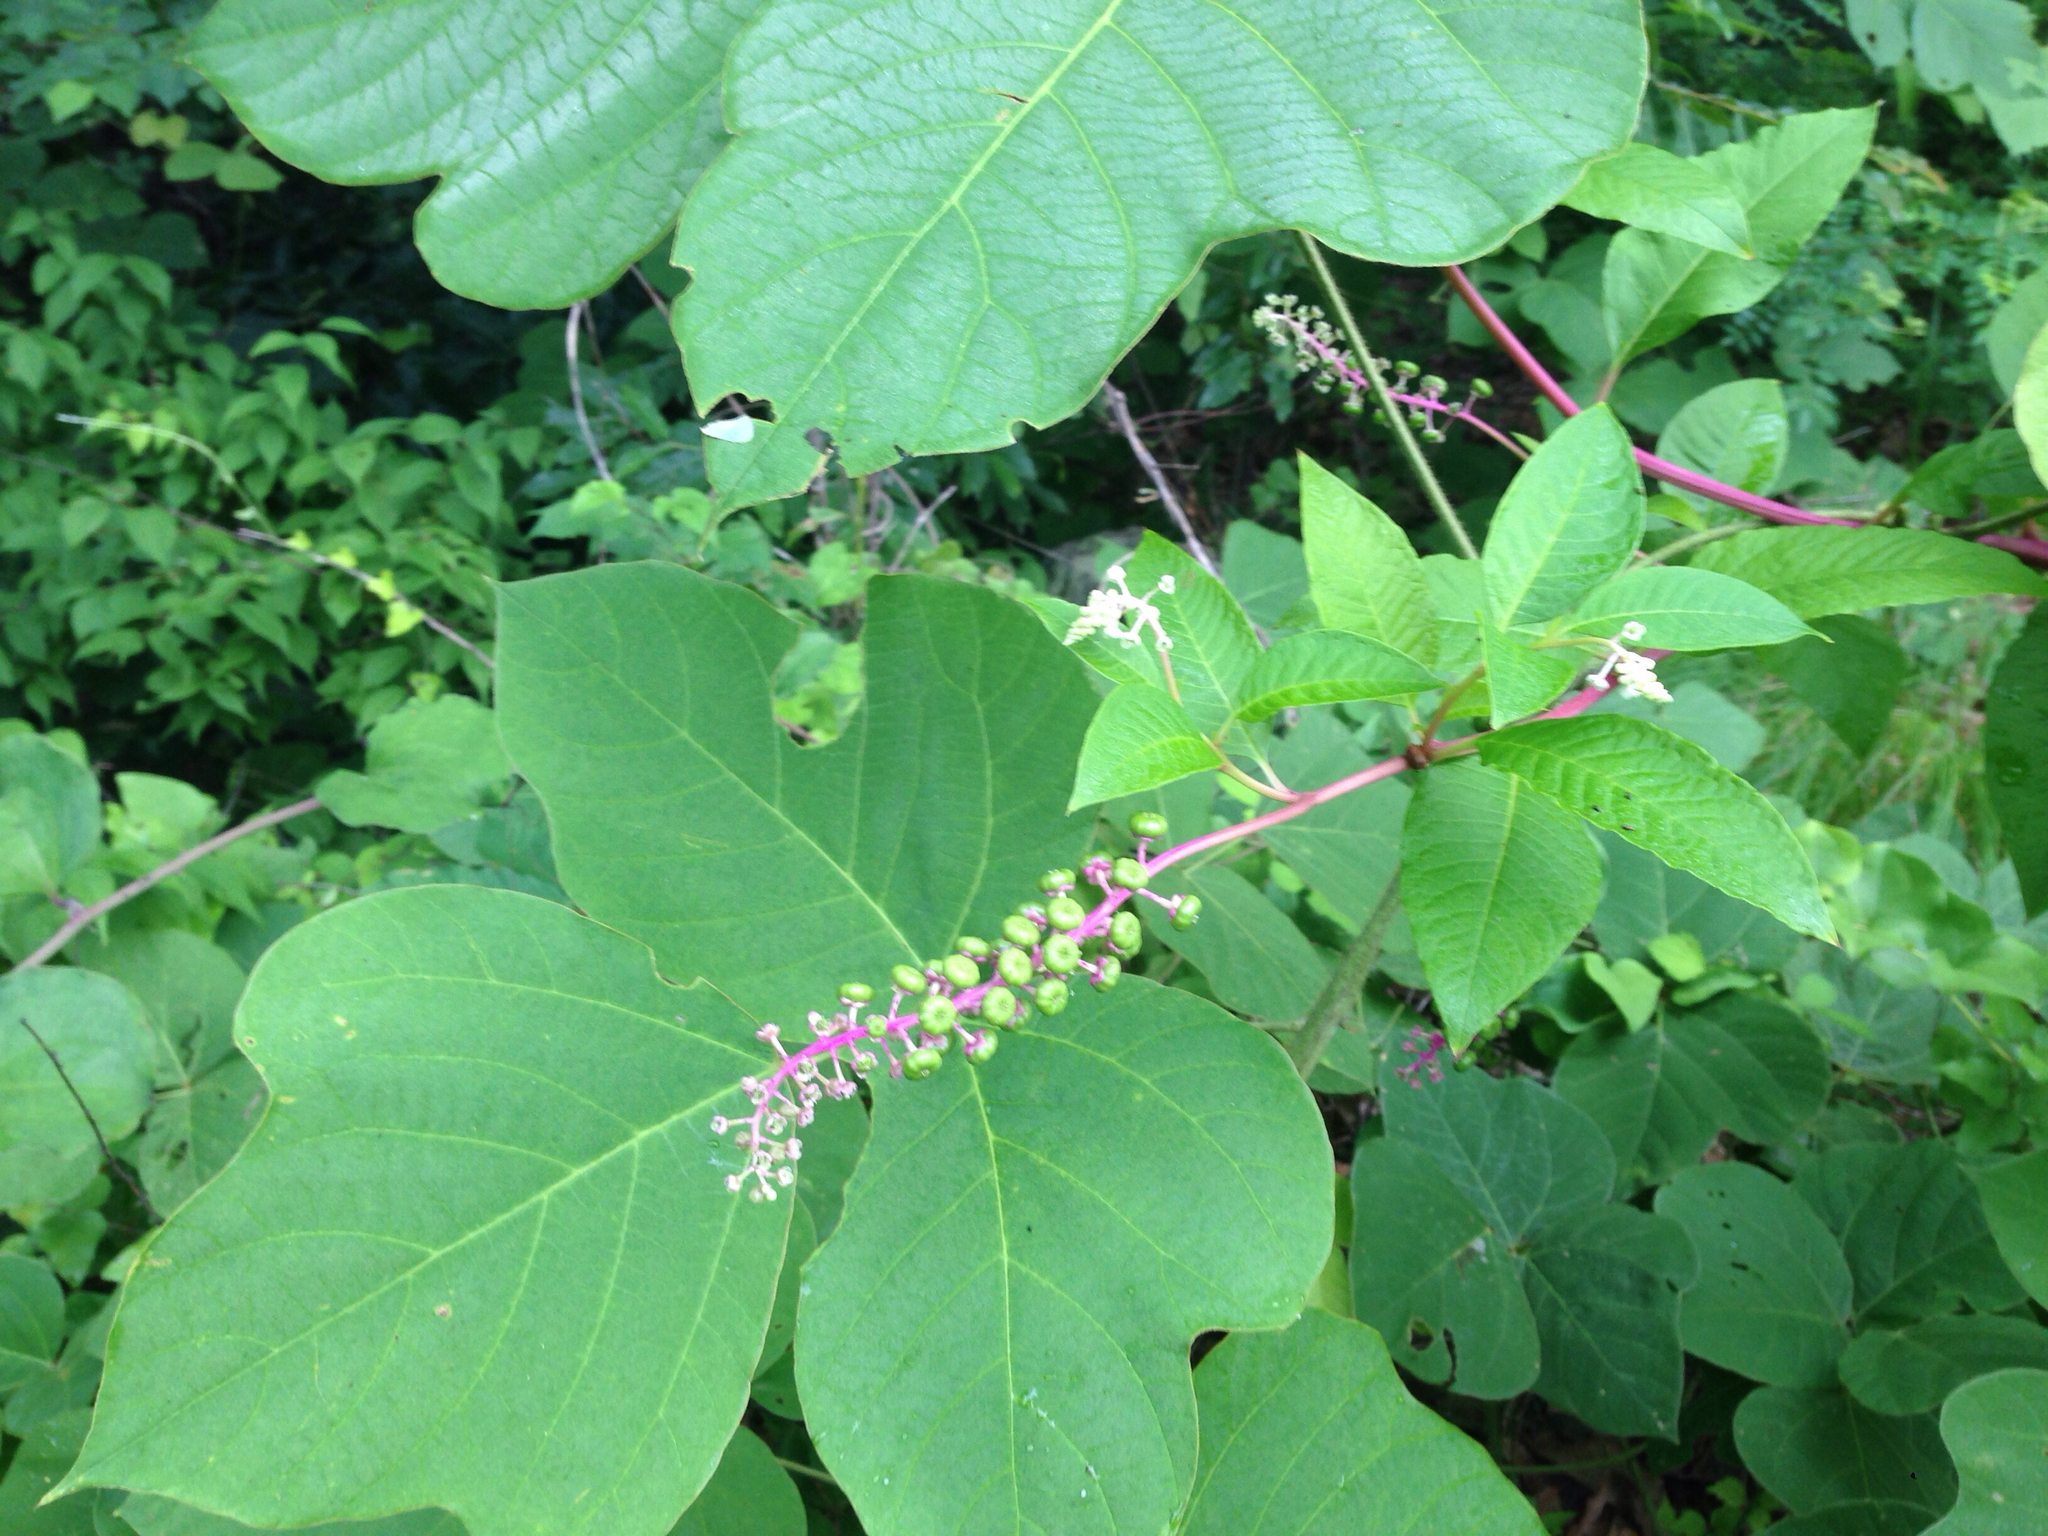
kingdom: Plantae
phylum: Tracheophyta
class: Magnoliopsida
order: Caryophyllales
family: Phytolaccaceae
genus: Phytolacca
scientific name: Phytolacca americana
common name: American pokeweed
